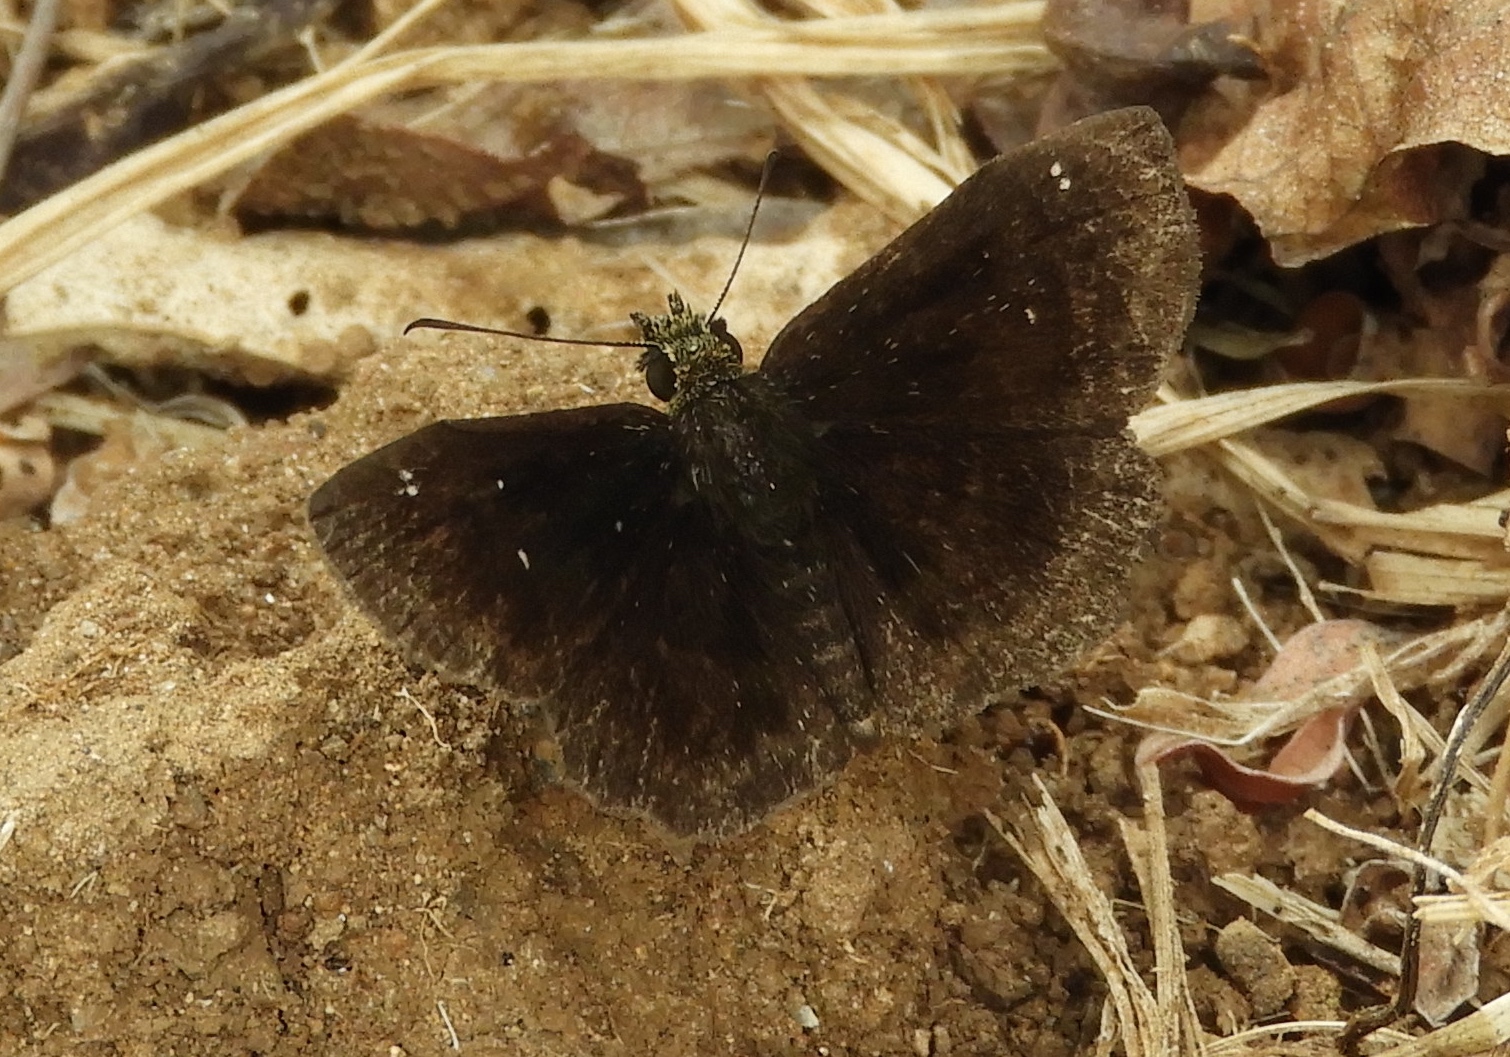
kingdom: Animalia
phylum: Arthropoda
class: Insecta
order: Lepidoptera
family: Hesperiidae
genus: Staphylus
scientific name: Staphylus mazans
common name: Mazans scallopwing
